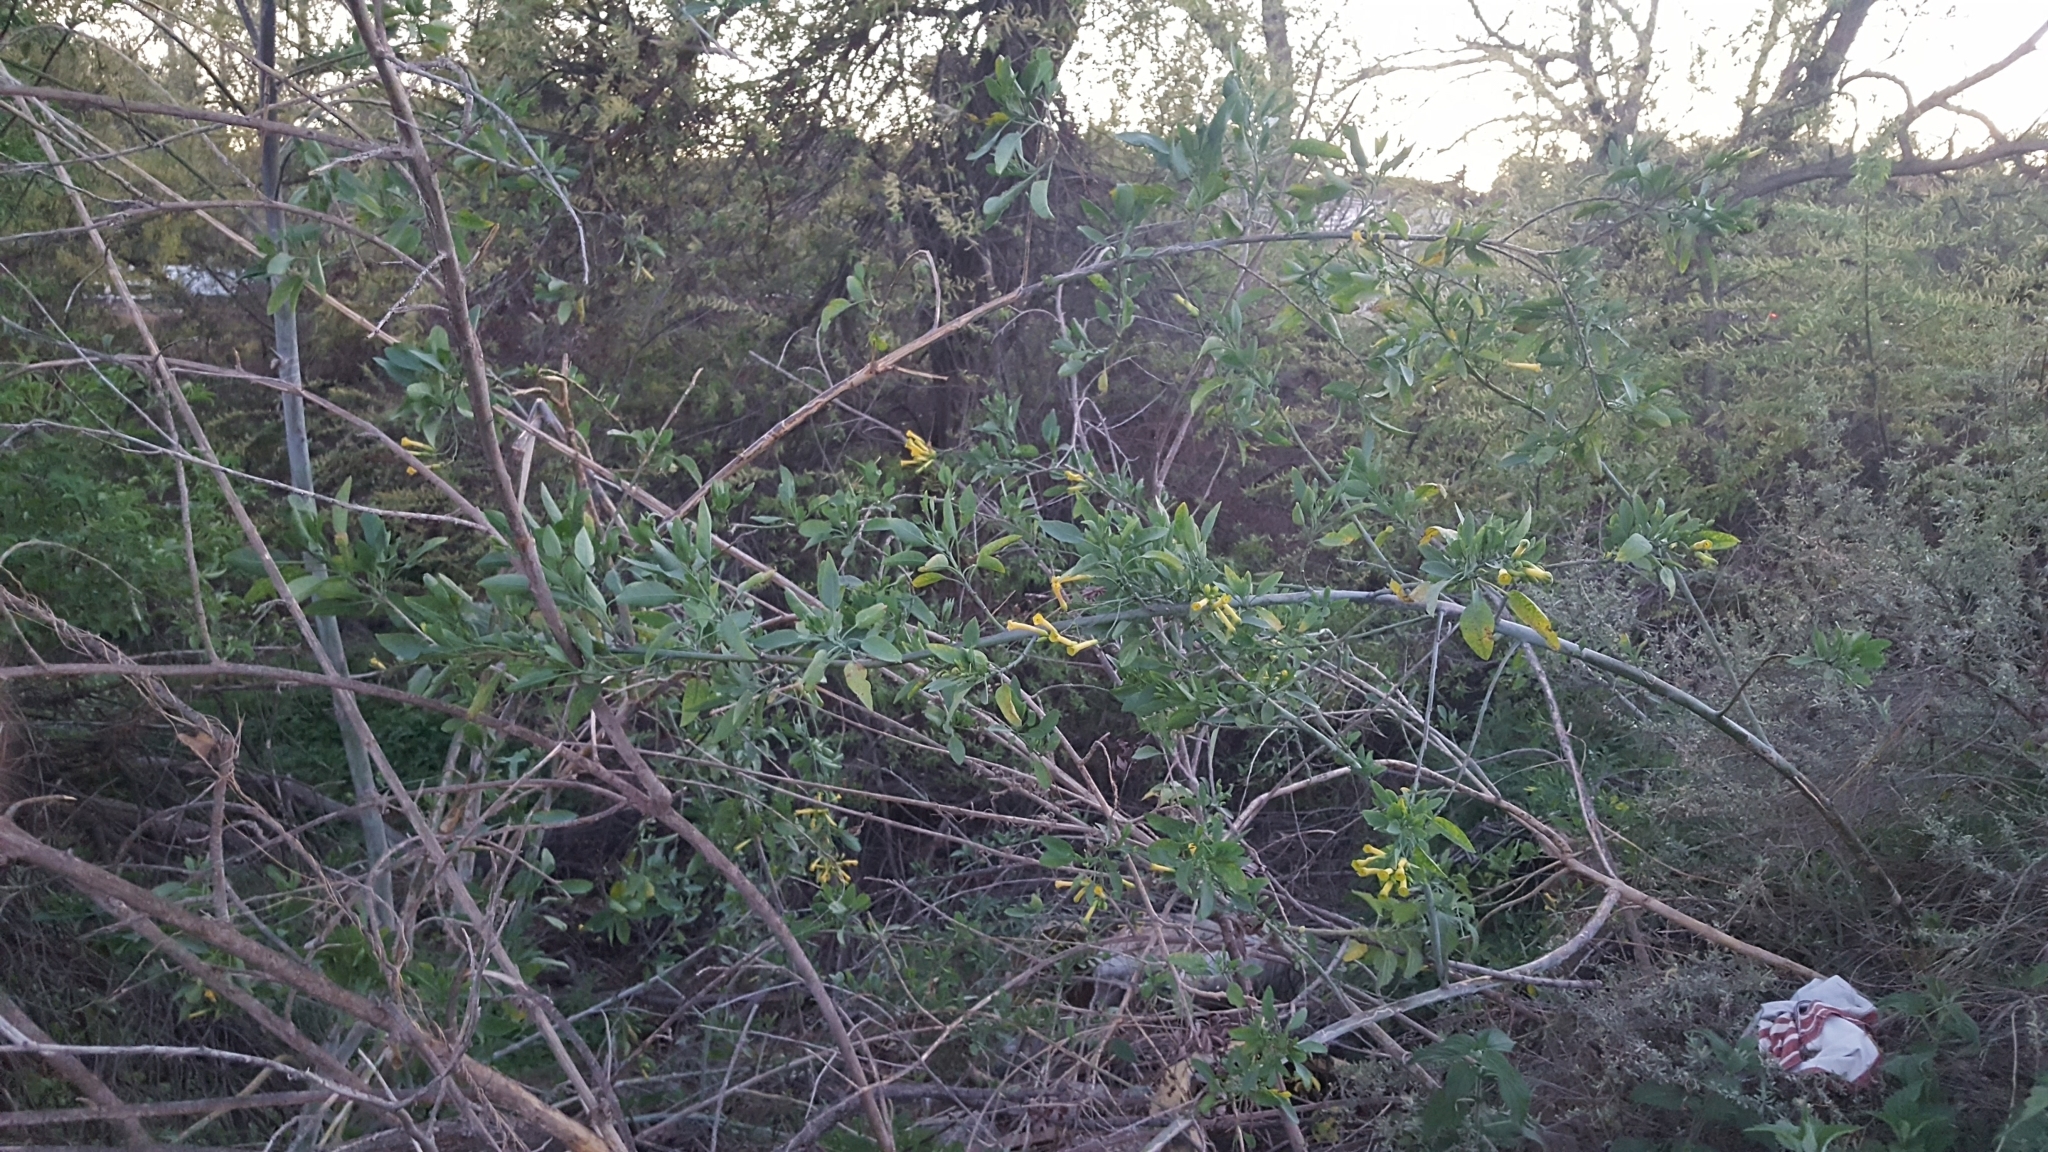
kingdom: Plantae
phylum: Tracheophyta
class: Magnoliopsida
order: Solanales
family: Solanaceae
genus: Nicotiana
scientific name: Nicotiana glauca
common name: Tree tobacco
